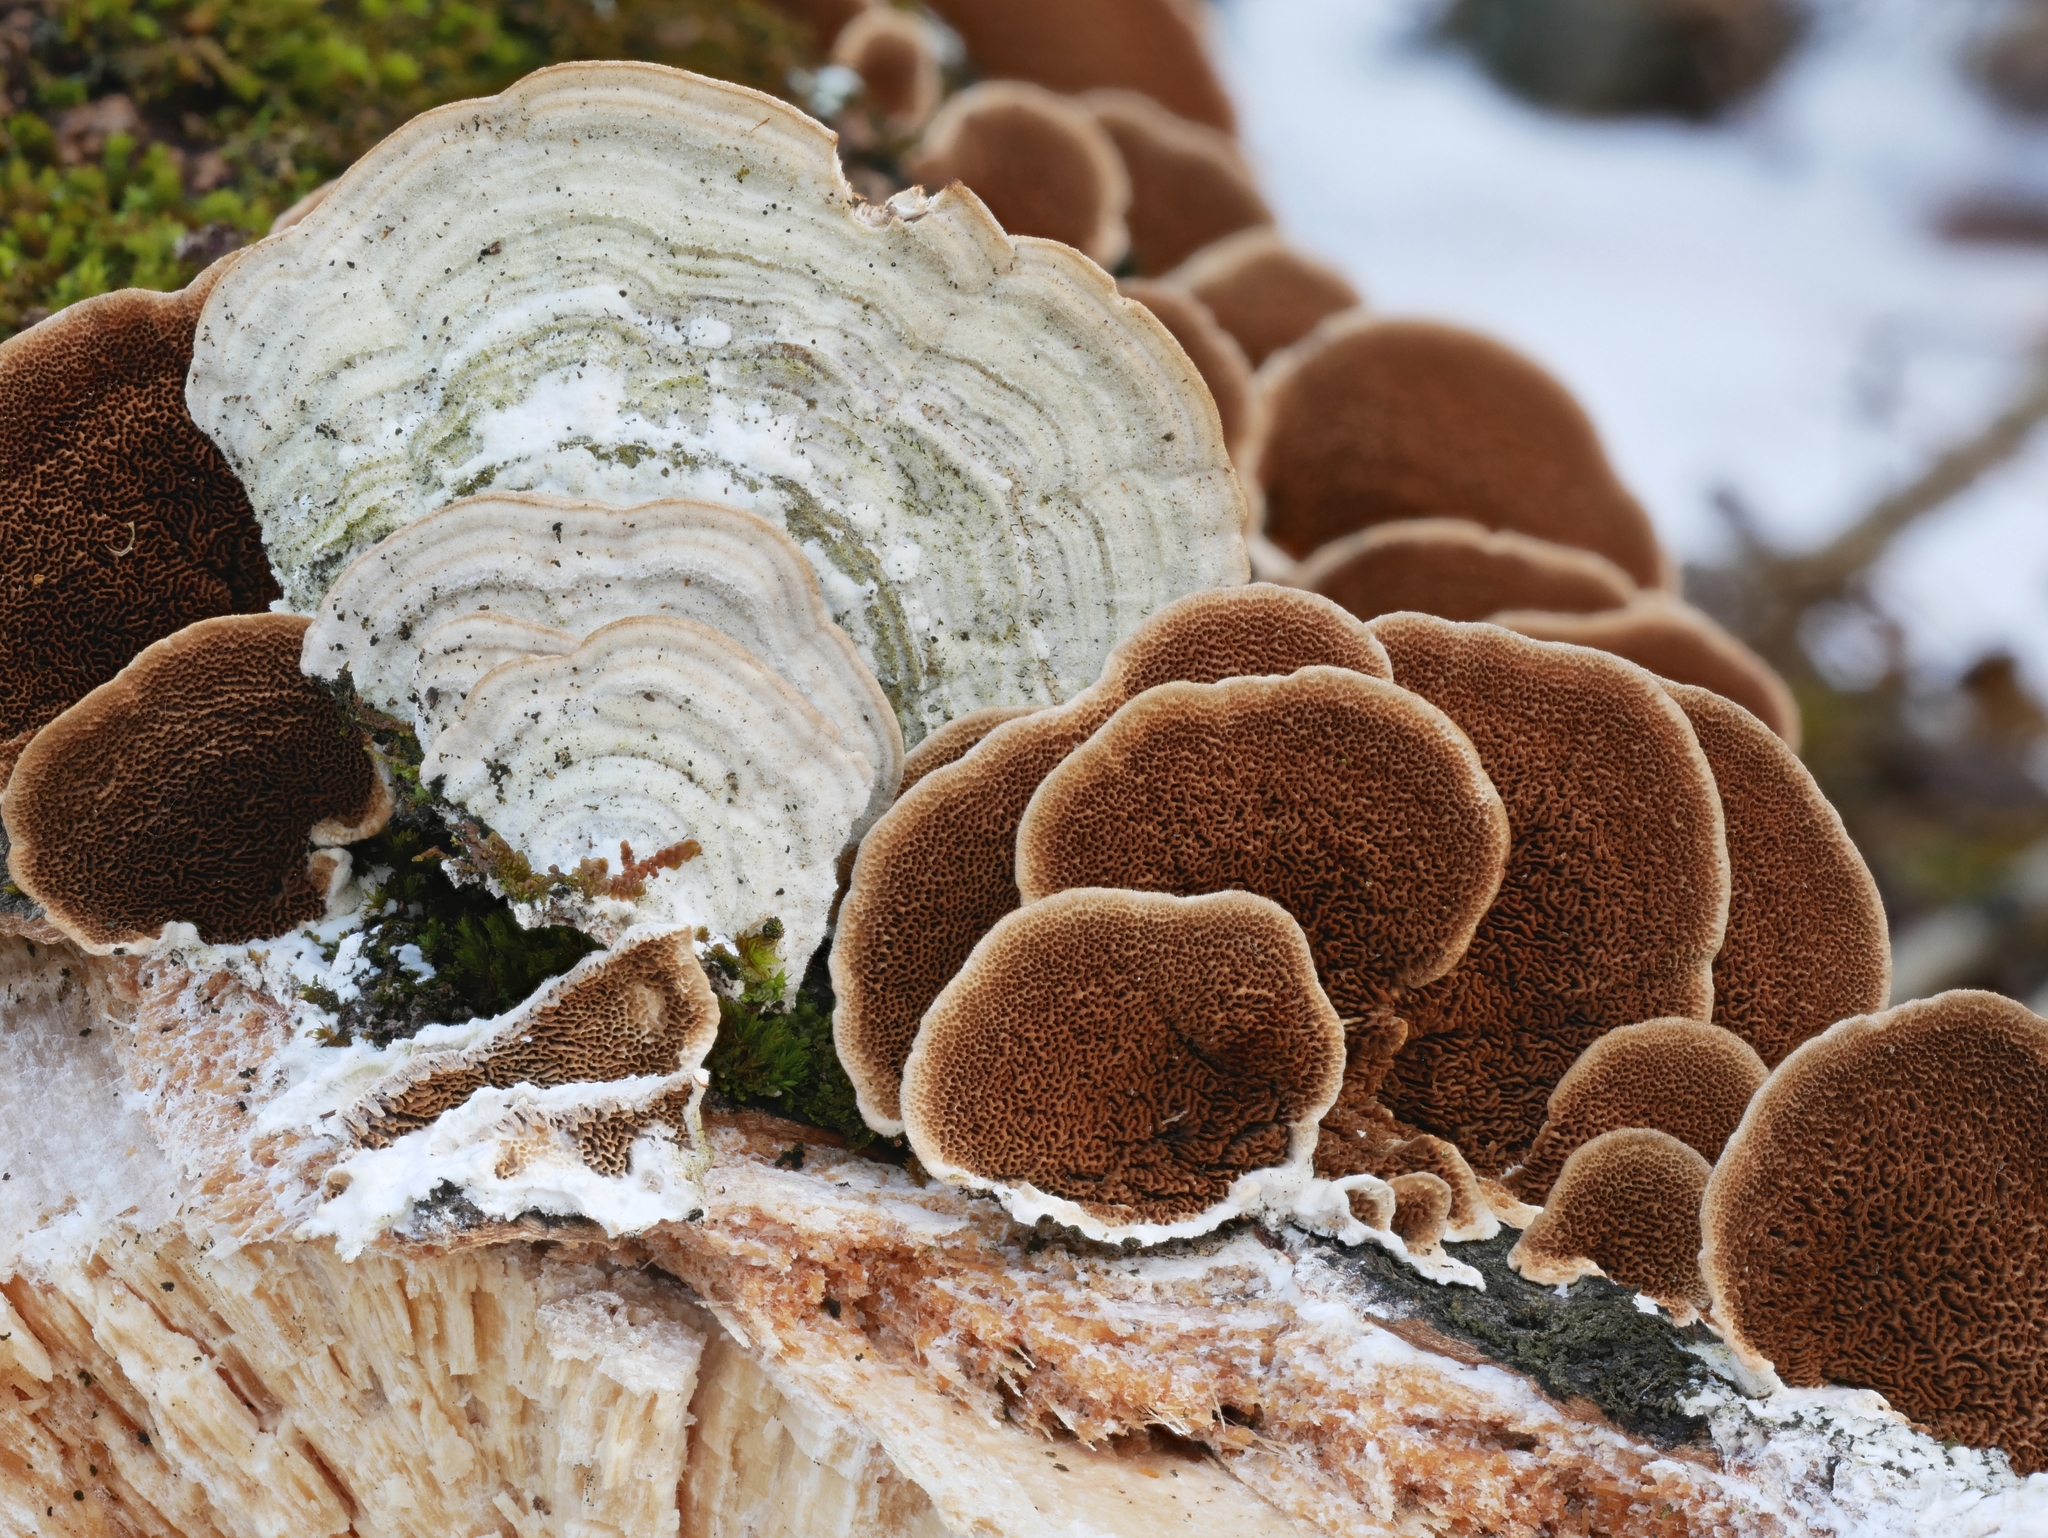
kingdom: Fungi
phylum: Basidiomycota
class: Agaricomycetes
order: Hymenochaetales
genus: Trichaptum
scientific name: Trichaptum subchartaceum
